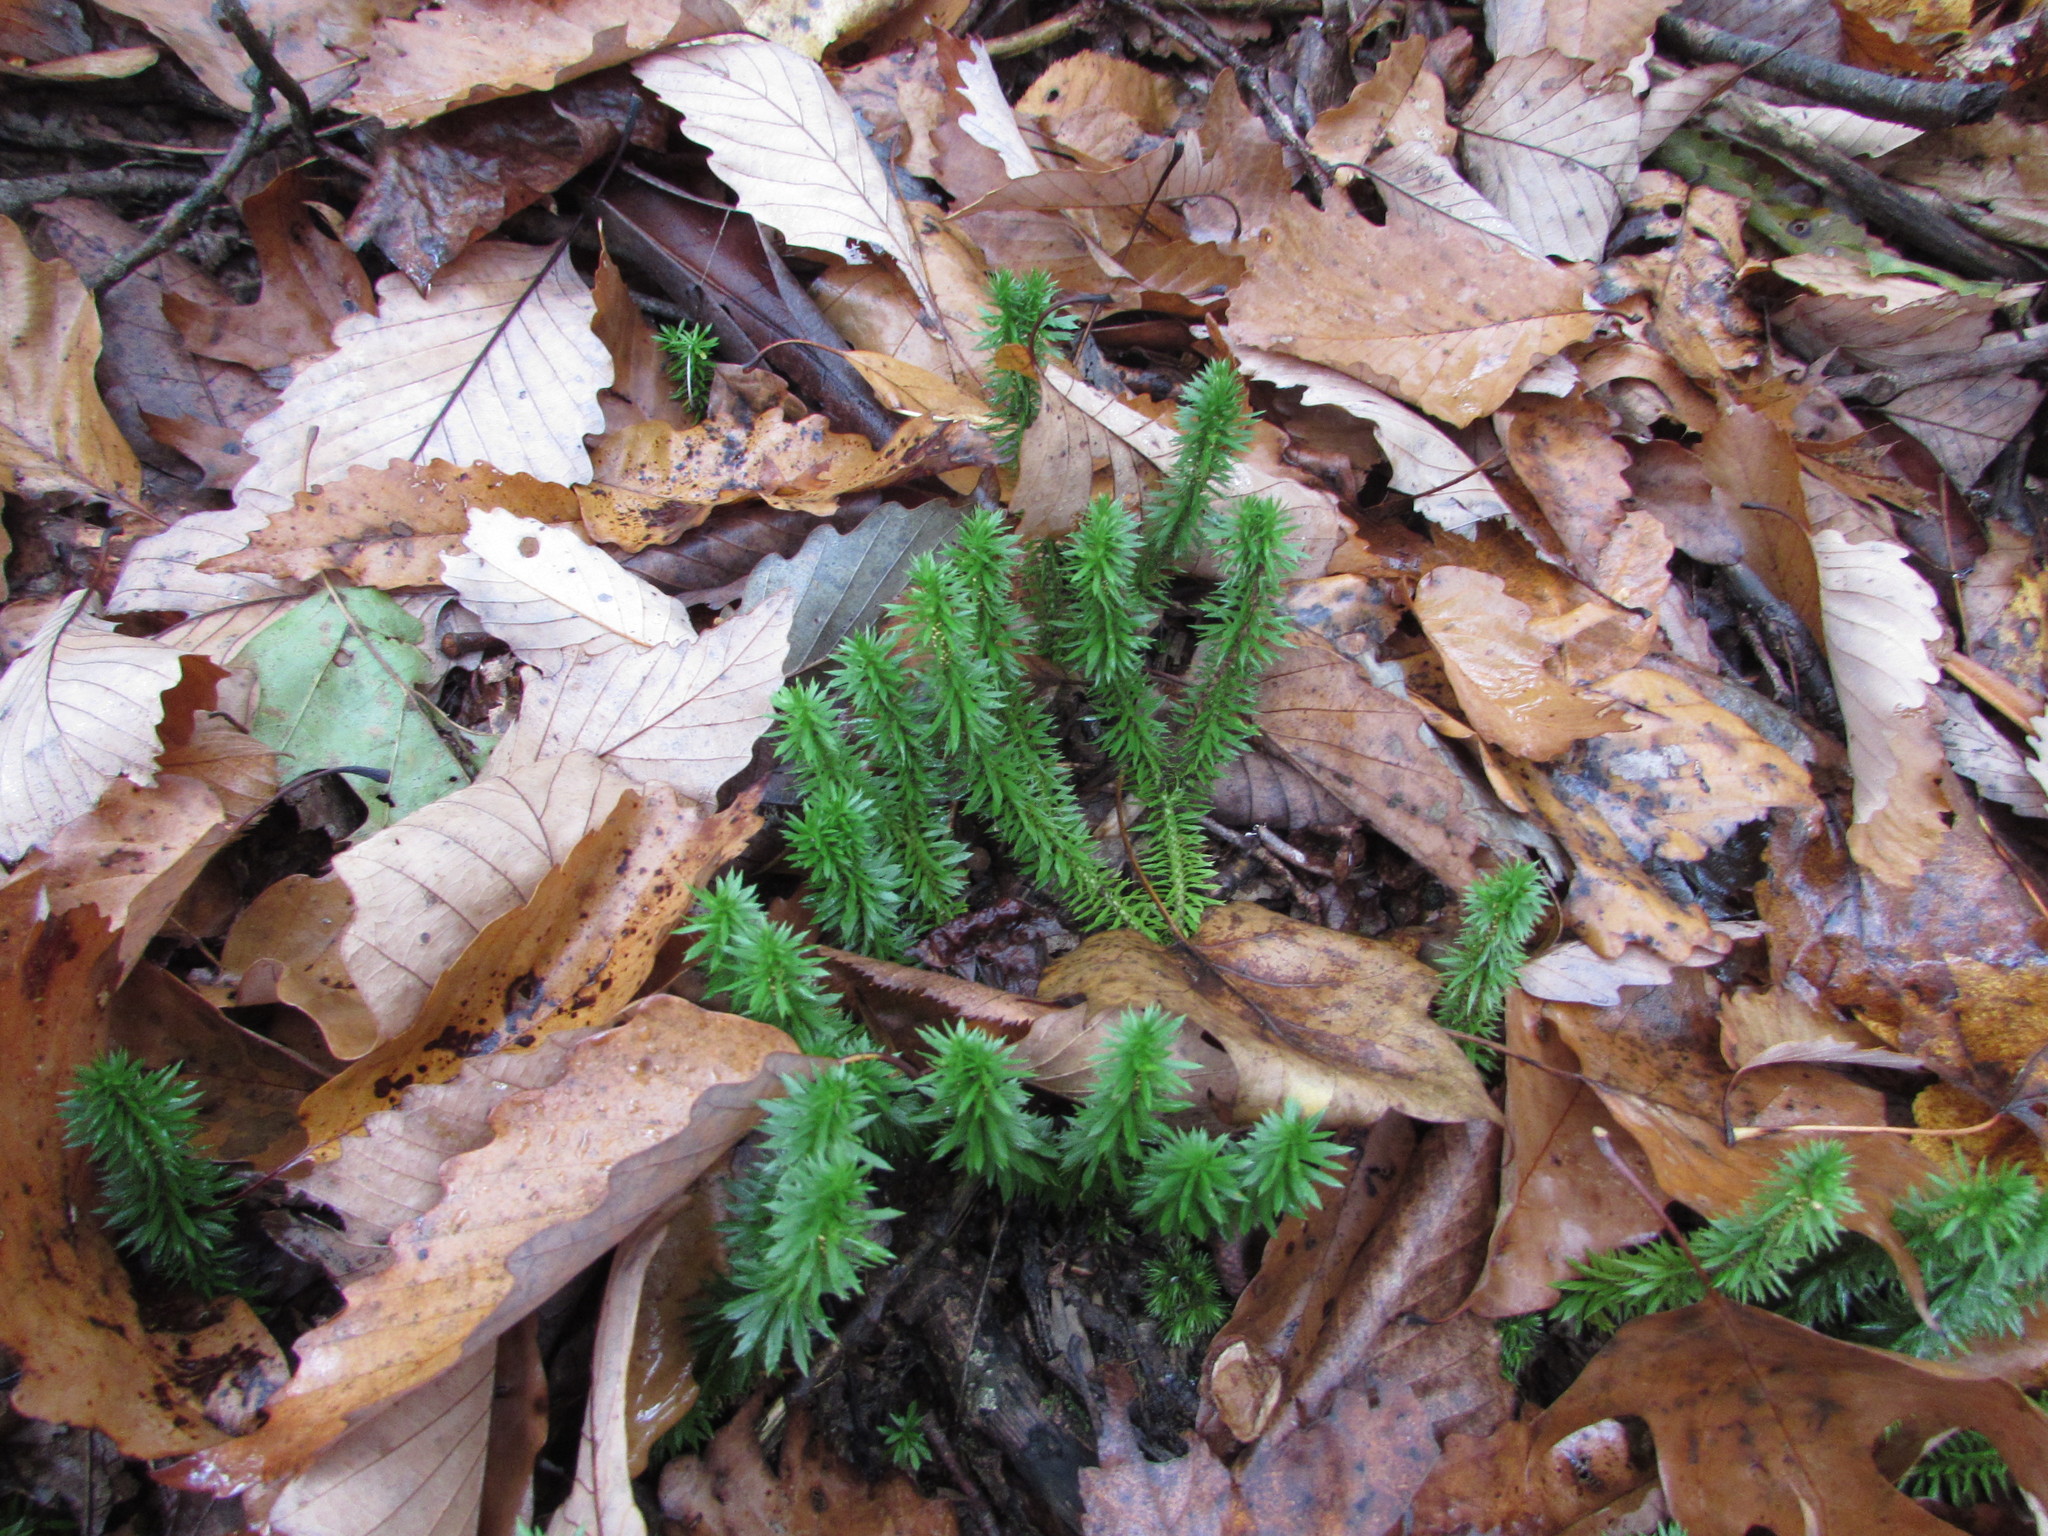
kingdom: Plantae
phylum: Tracheophyta
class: Lycopodiopsida
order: Lycopodiales
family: Lycopodiaceae
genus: Huperzia
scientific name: Huperzia lucidula
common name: Shining clubmoss
